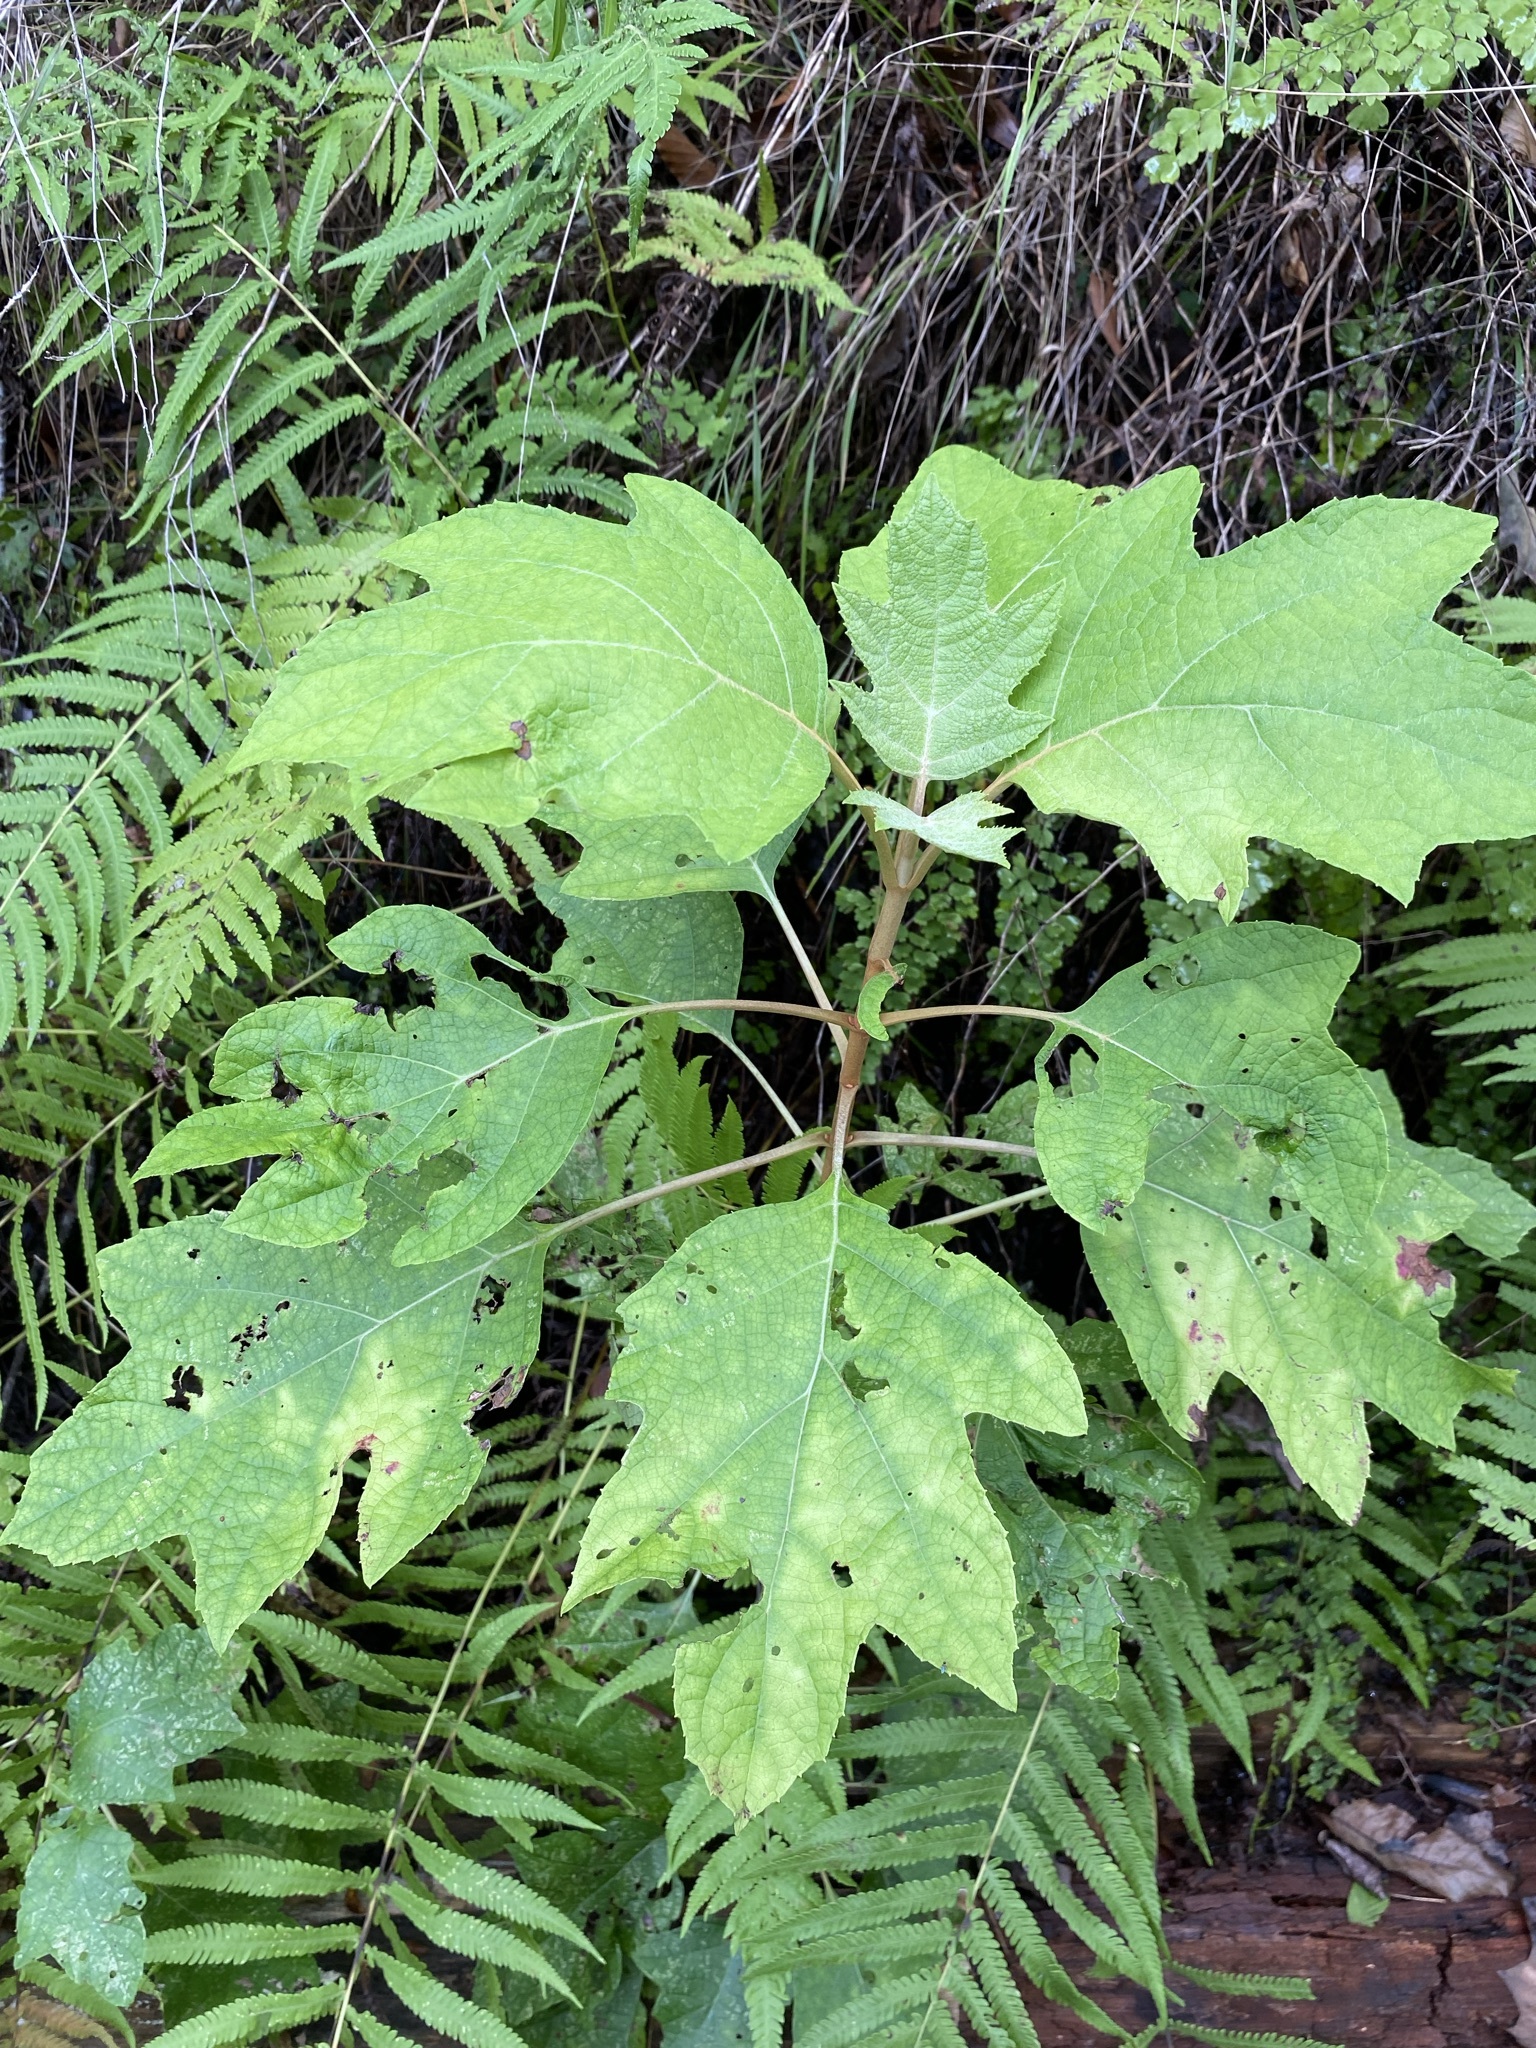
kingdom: Plantae
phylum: Tracheophyta
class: Magnoliopsida
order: Cornales
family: Hydrangeaceae
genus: Hydrangea
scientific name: Hydrangea quercifolia
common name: Oak-leaf hydrangea
